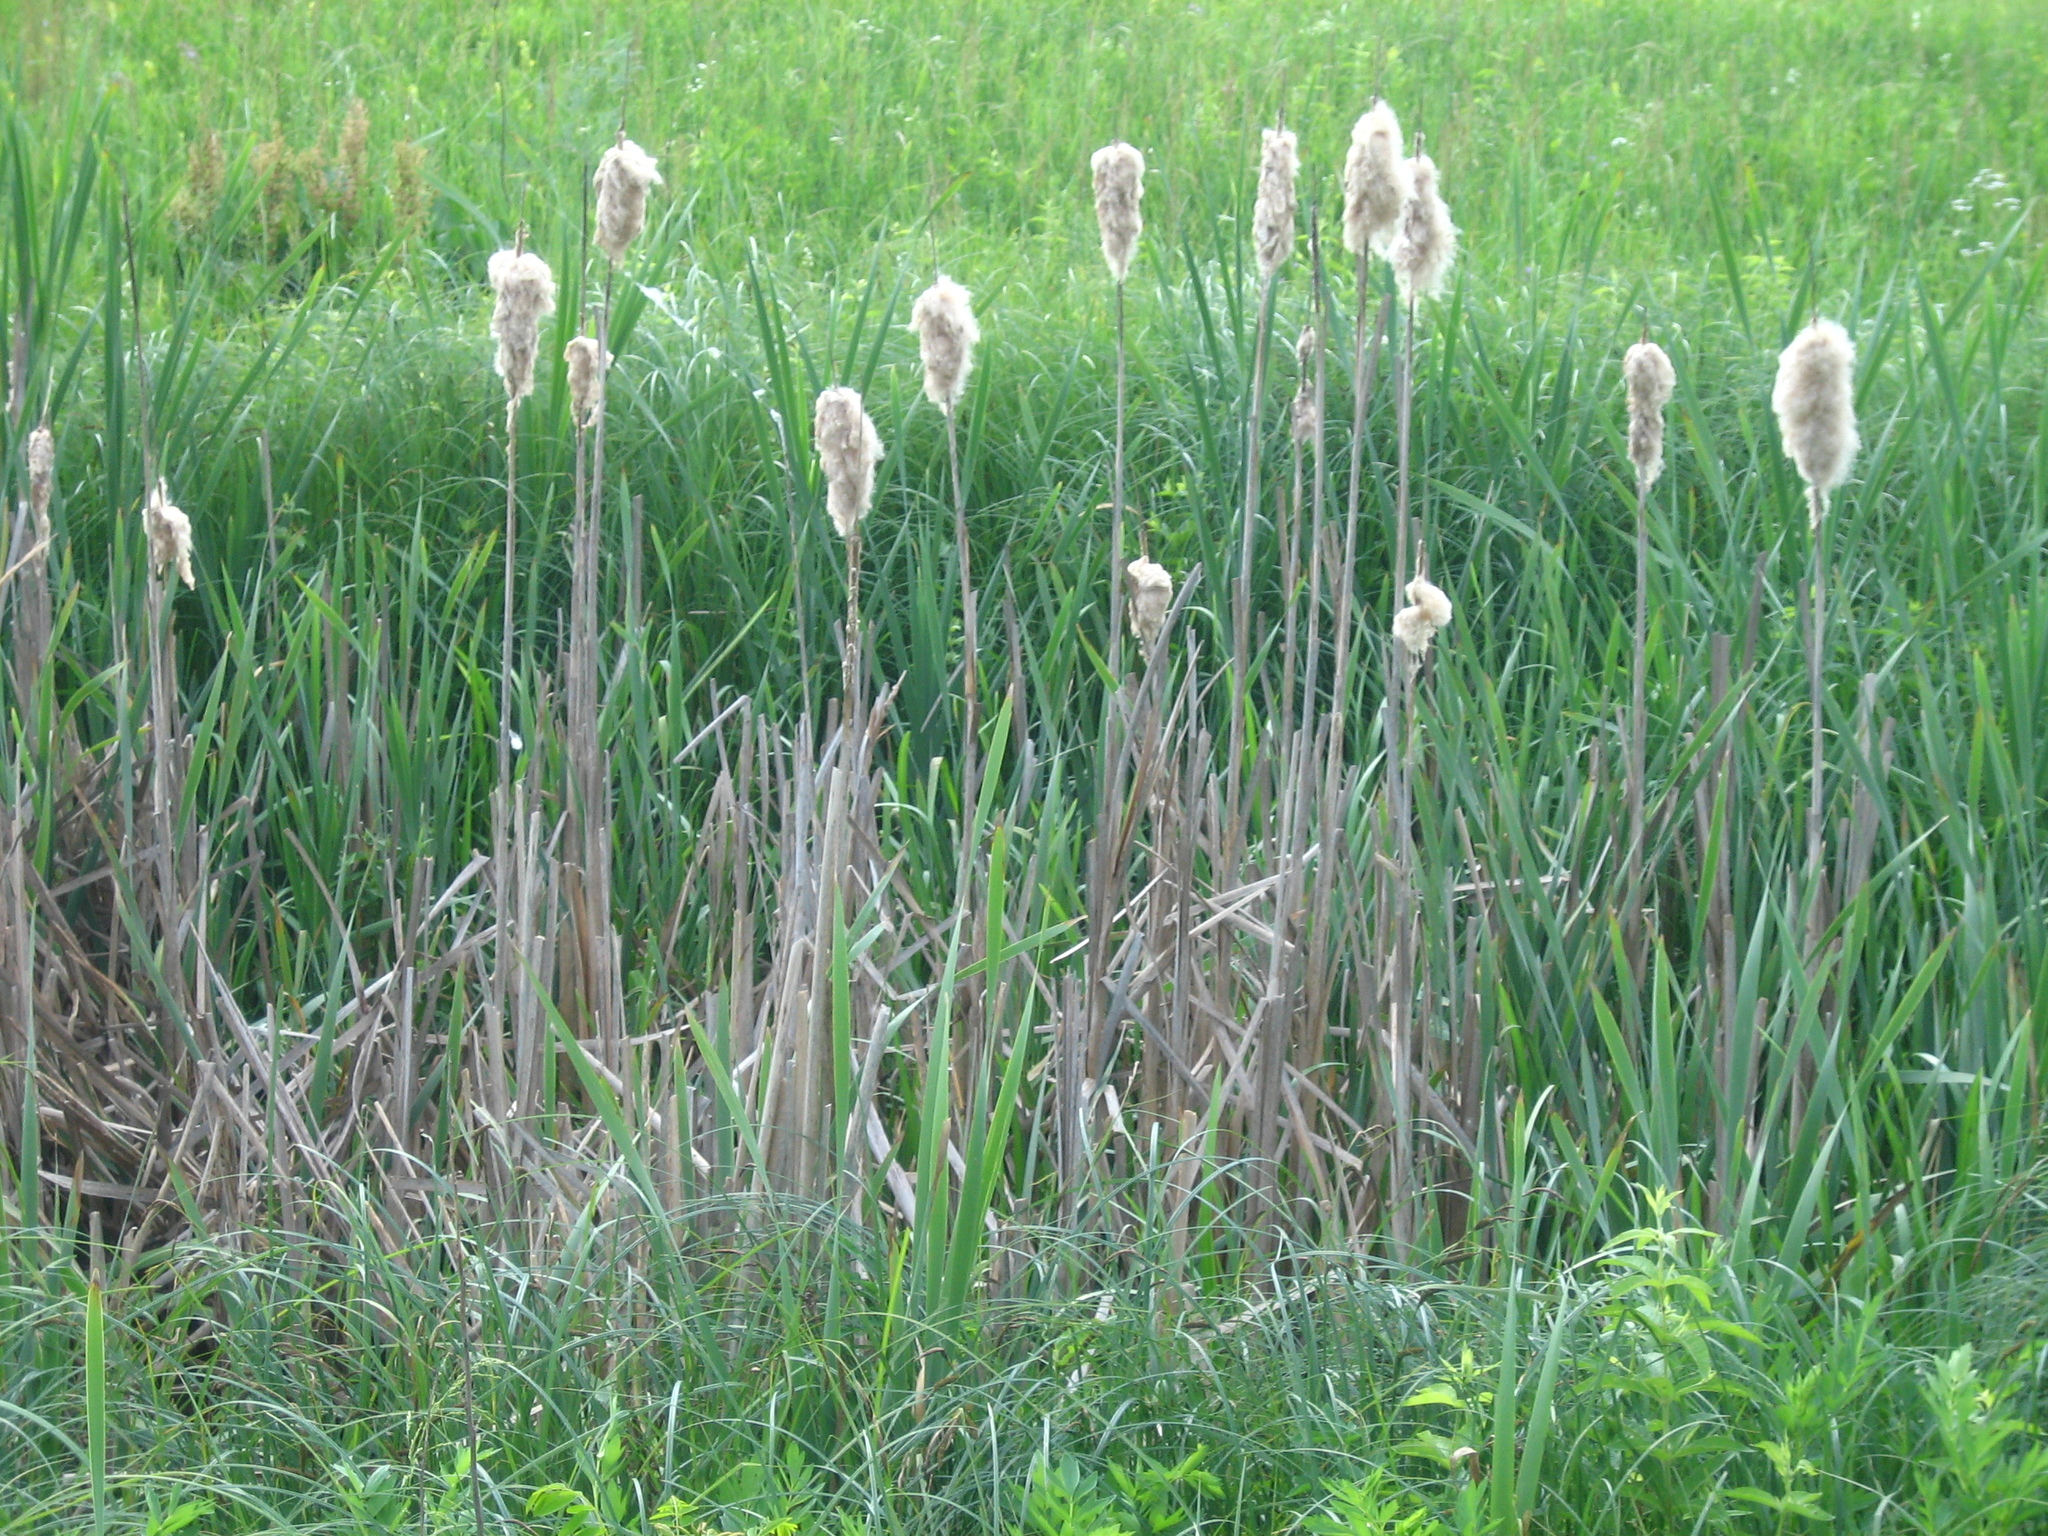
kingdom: Plantae
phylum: Tracheophyta
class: Liliopsida
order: Poales
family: Typhaceae
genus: Typha
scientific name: Typha latifolia
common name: Broadleaf cattail
